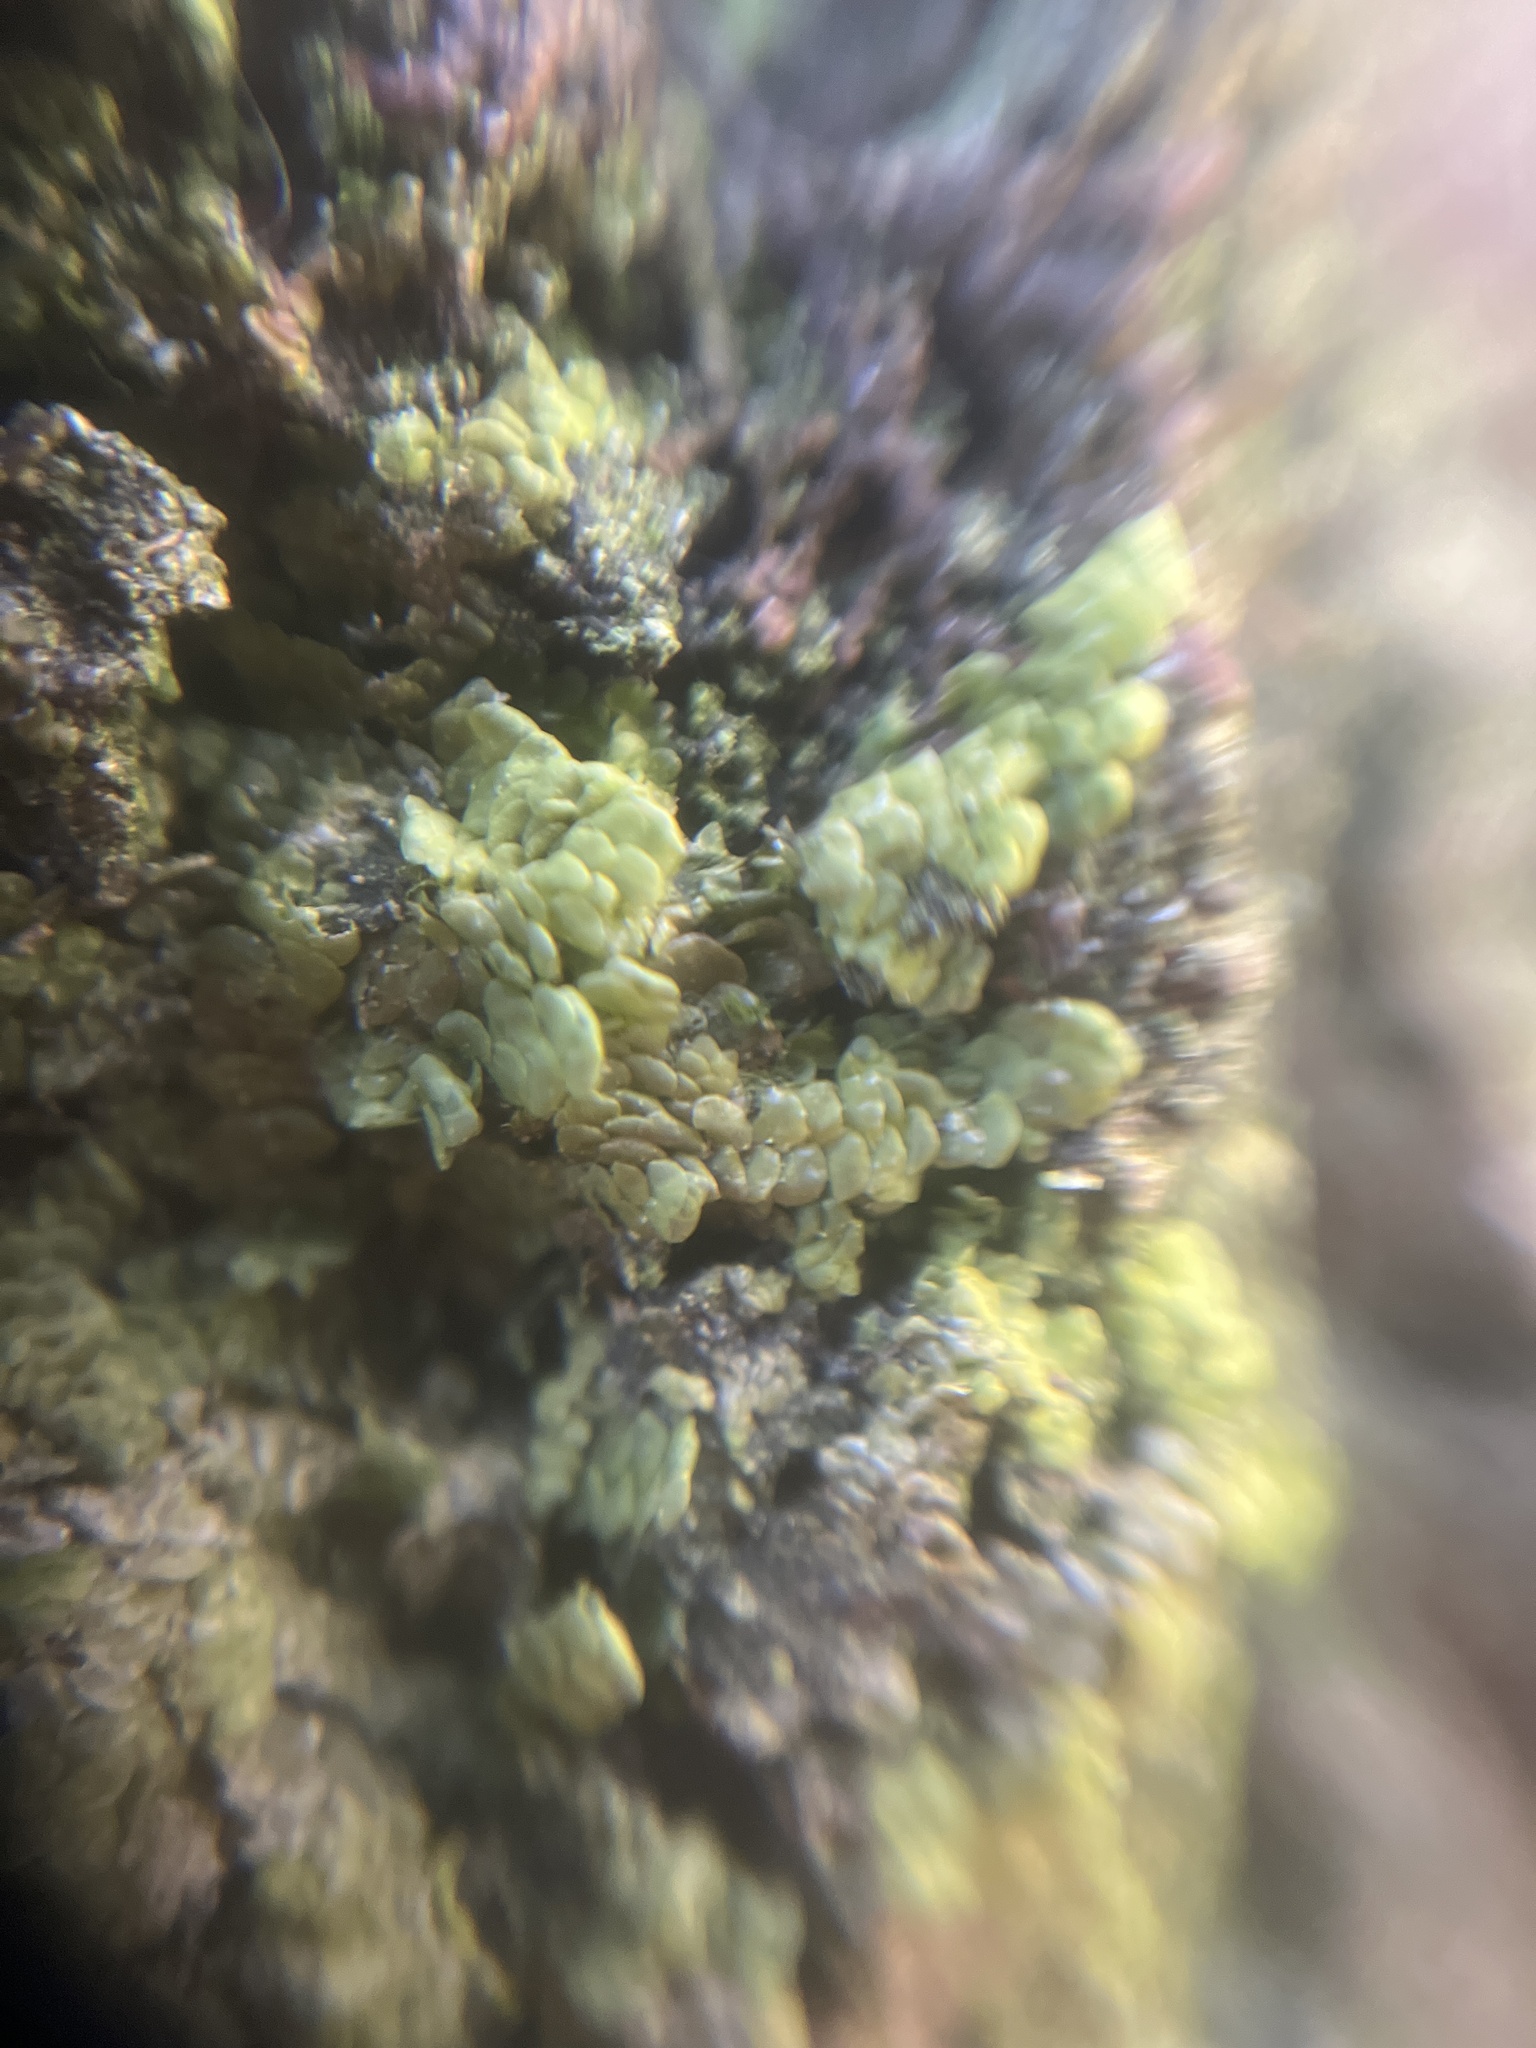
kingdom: Plantae
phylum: Marchantiophyta
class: Jungermanniopsida
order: Porellales
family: Radulaceae
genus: Radula
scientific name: Radula complanata
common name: Flat-leaved scalewort
